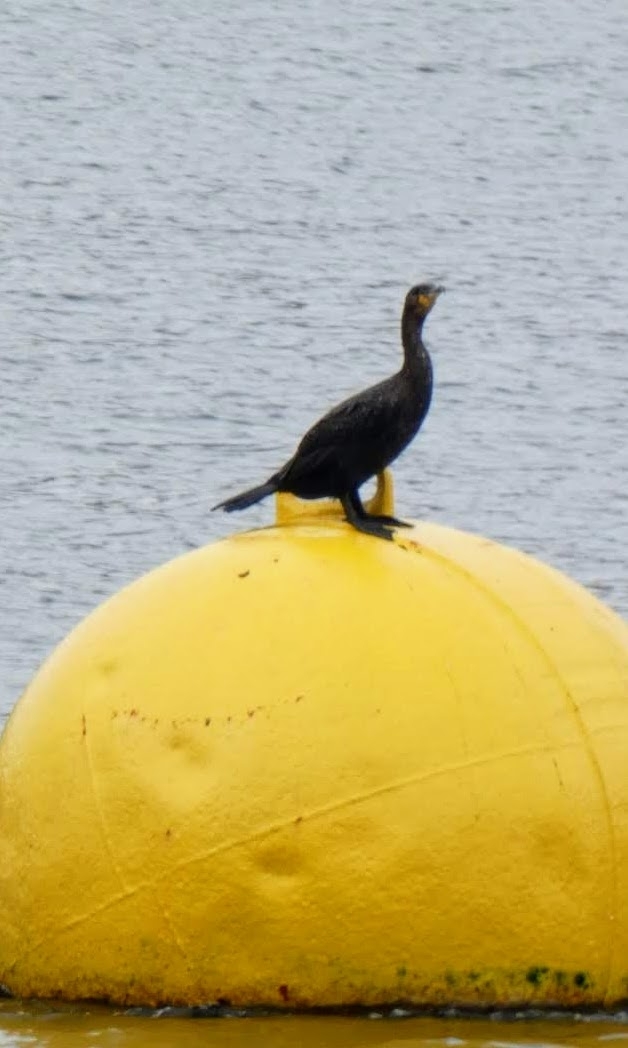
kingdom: Animalia
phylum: Chordata
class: Aves
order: Suliformes
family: Phalacrocoracidae
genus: Phalacrocorax
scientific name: Phalacrocorax carbo
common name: Great cormorant
